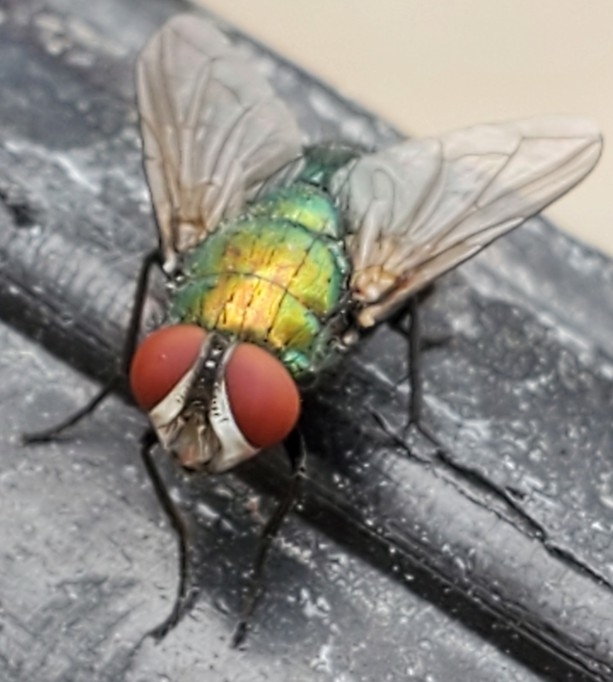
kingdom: Animalia
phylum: Arthropoda
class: Insecta
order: Diptera
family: Calliphoridae
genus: Lucilia
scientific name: Lucilia sericata
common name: Blow fly
